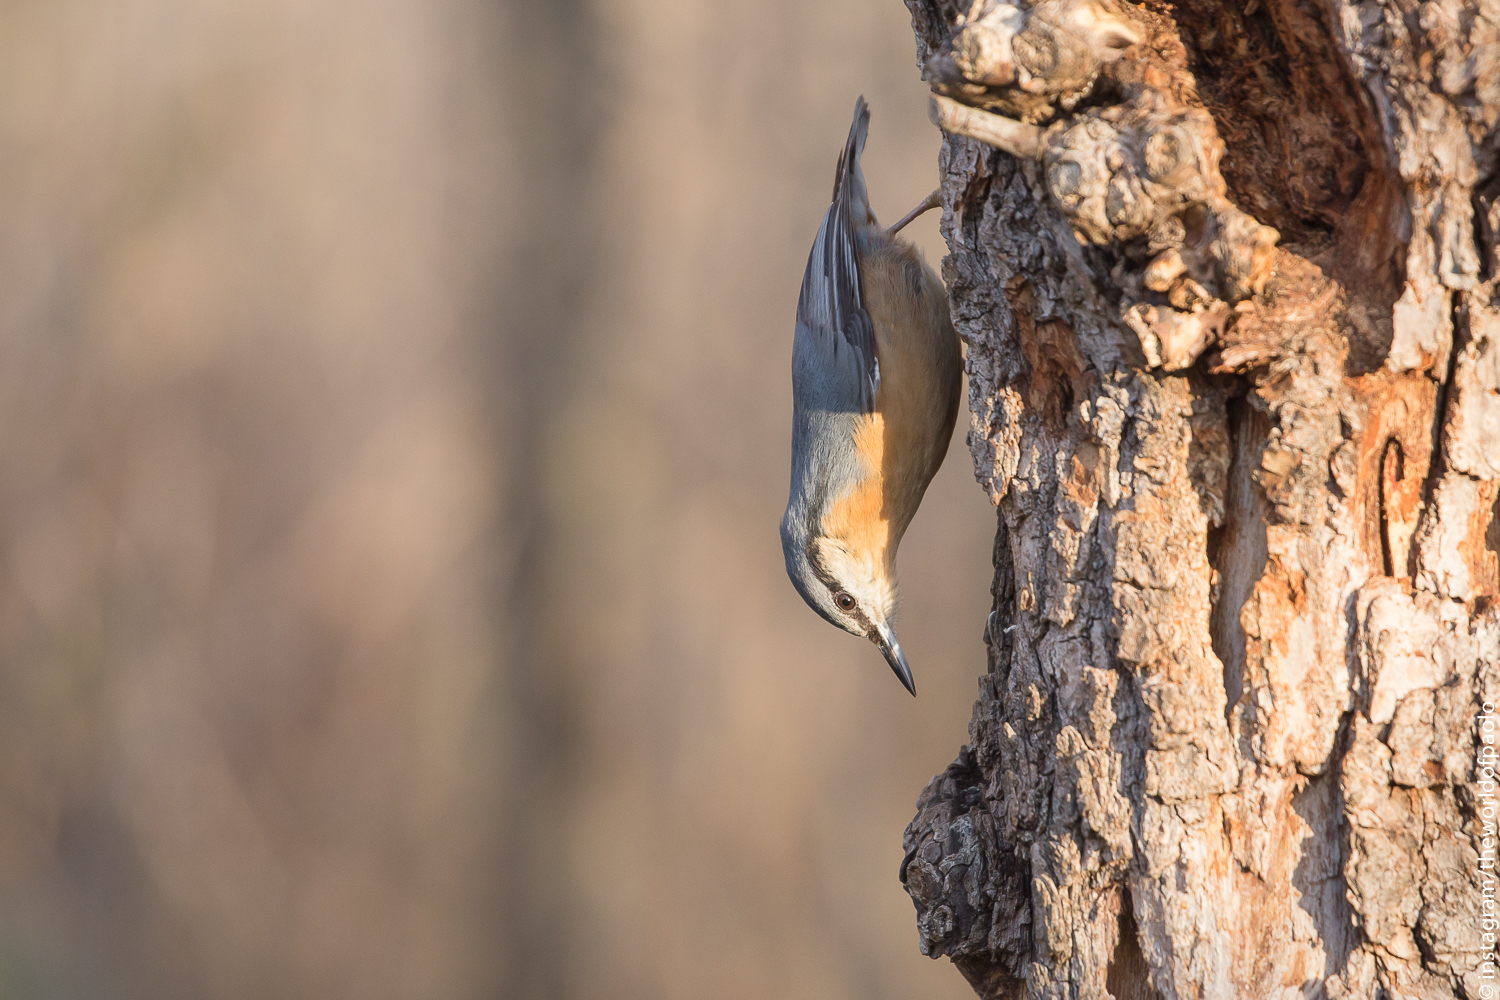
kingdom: Animalia
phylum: Chordata
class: Aves
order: Passeriformes
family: Sittidae
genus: Sitta
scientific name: Sitta europaea
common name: Eurasian nuthatch
